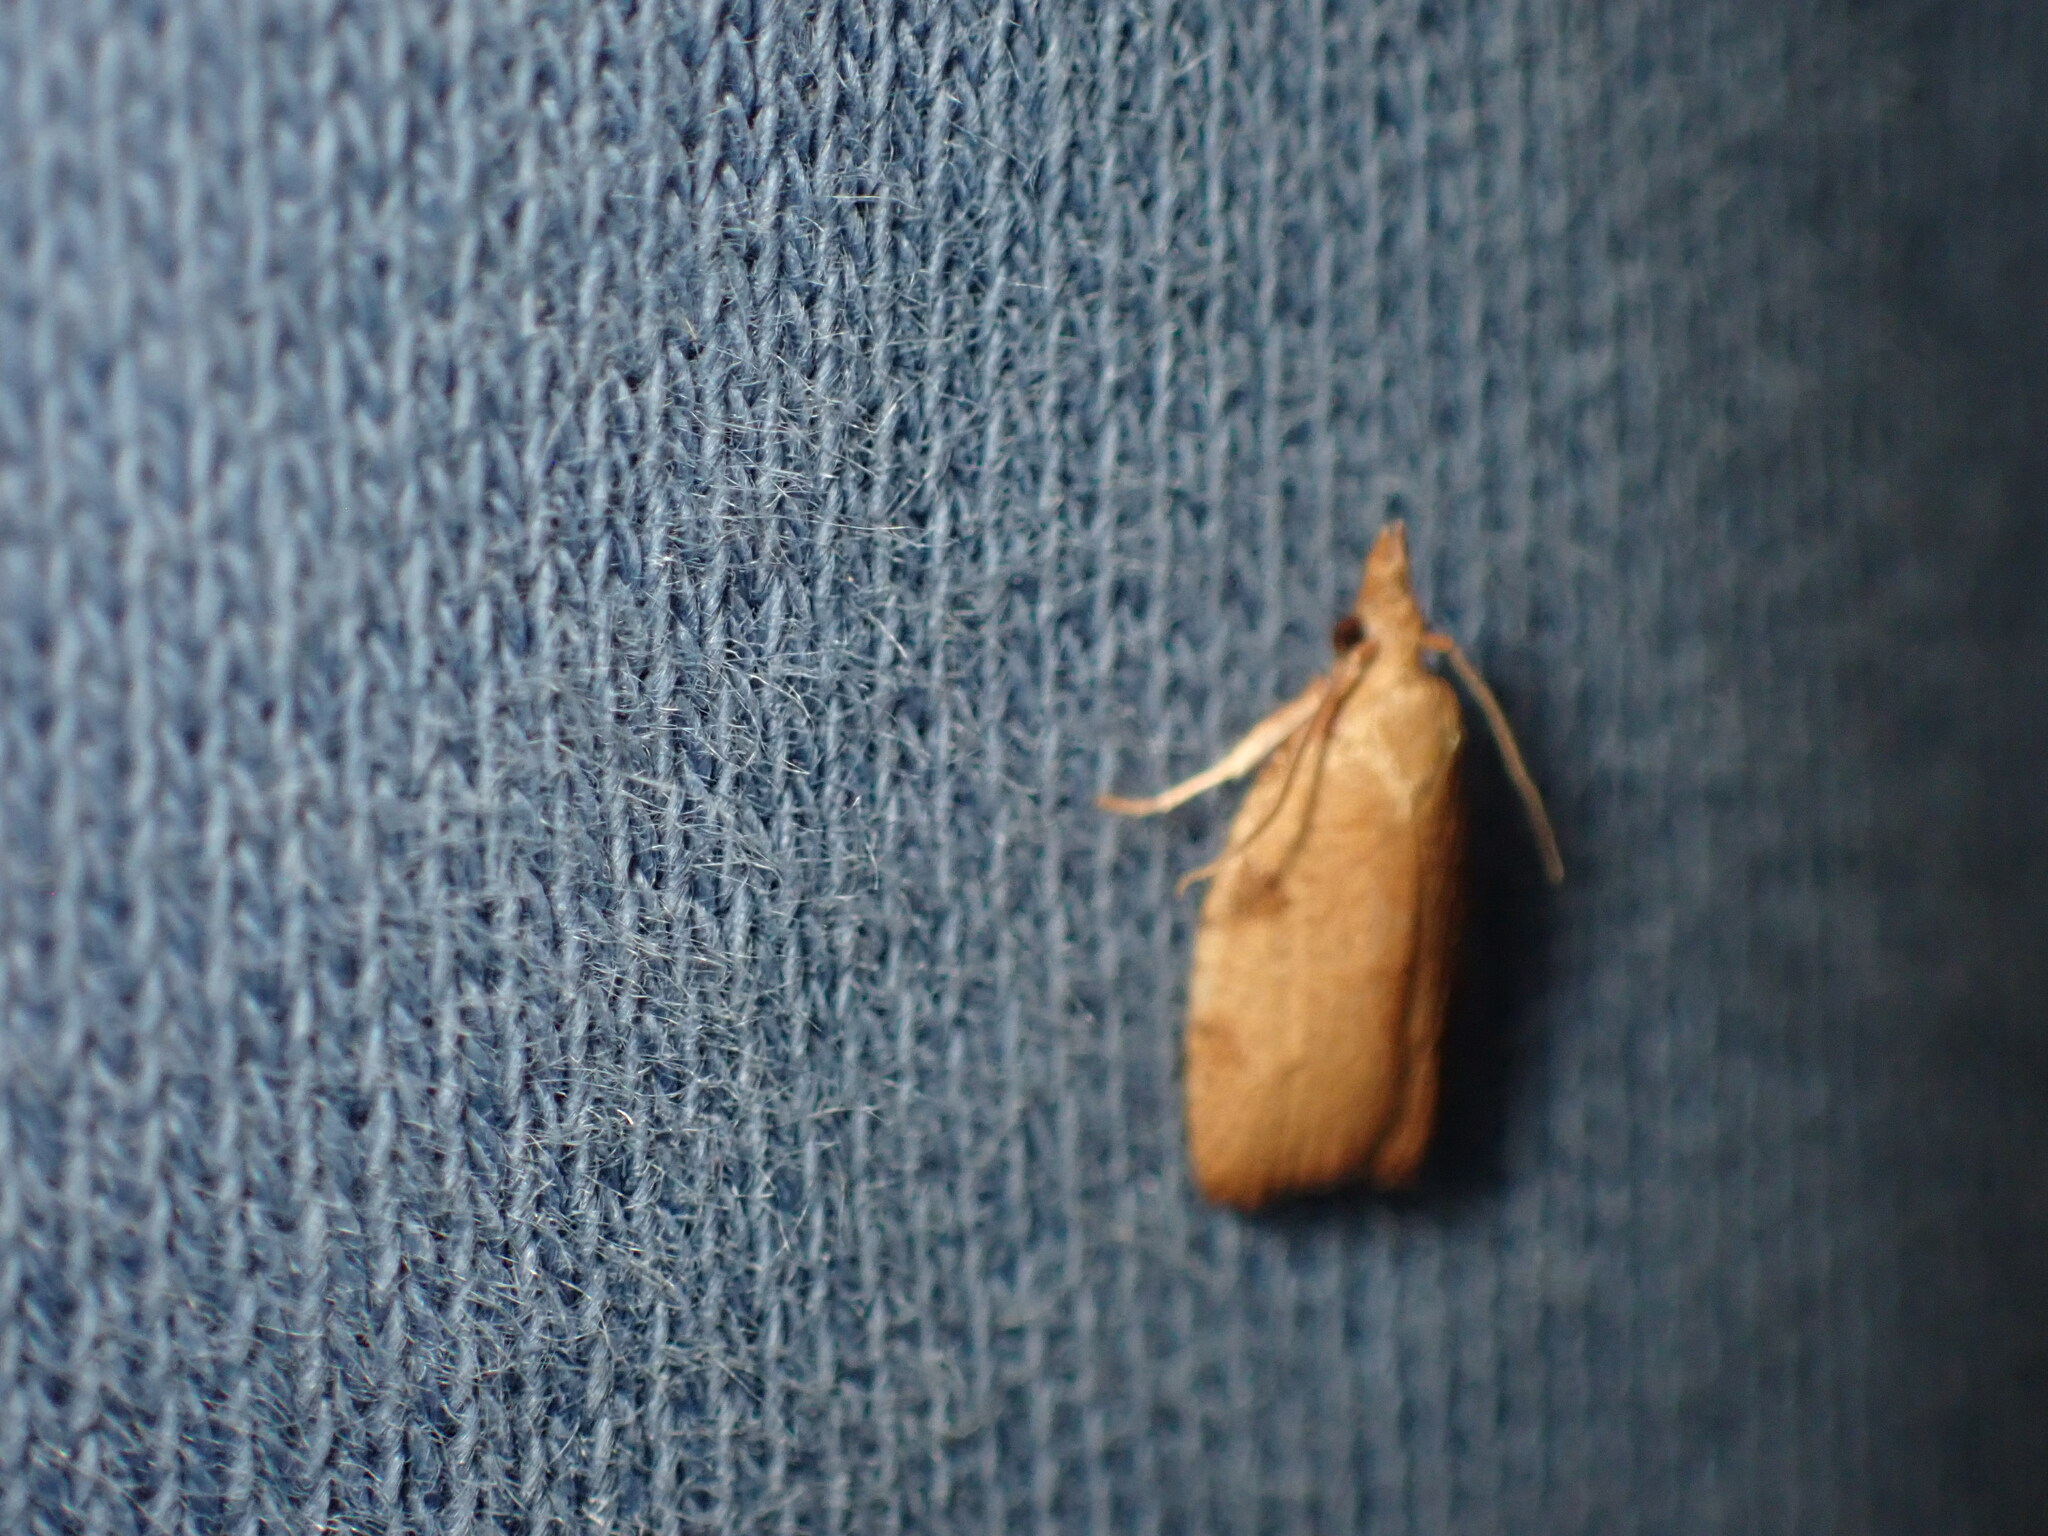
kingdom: Animalia
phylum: Arthropoda
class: Insecta
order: Lepidoptera
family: Tortricidae
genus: Cenopis
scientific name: Cenopis directana
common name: Chokecherry leafroller moth
